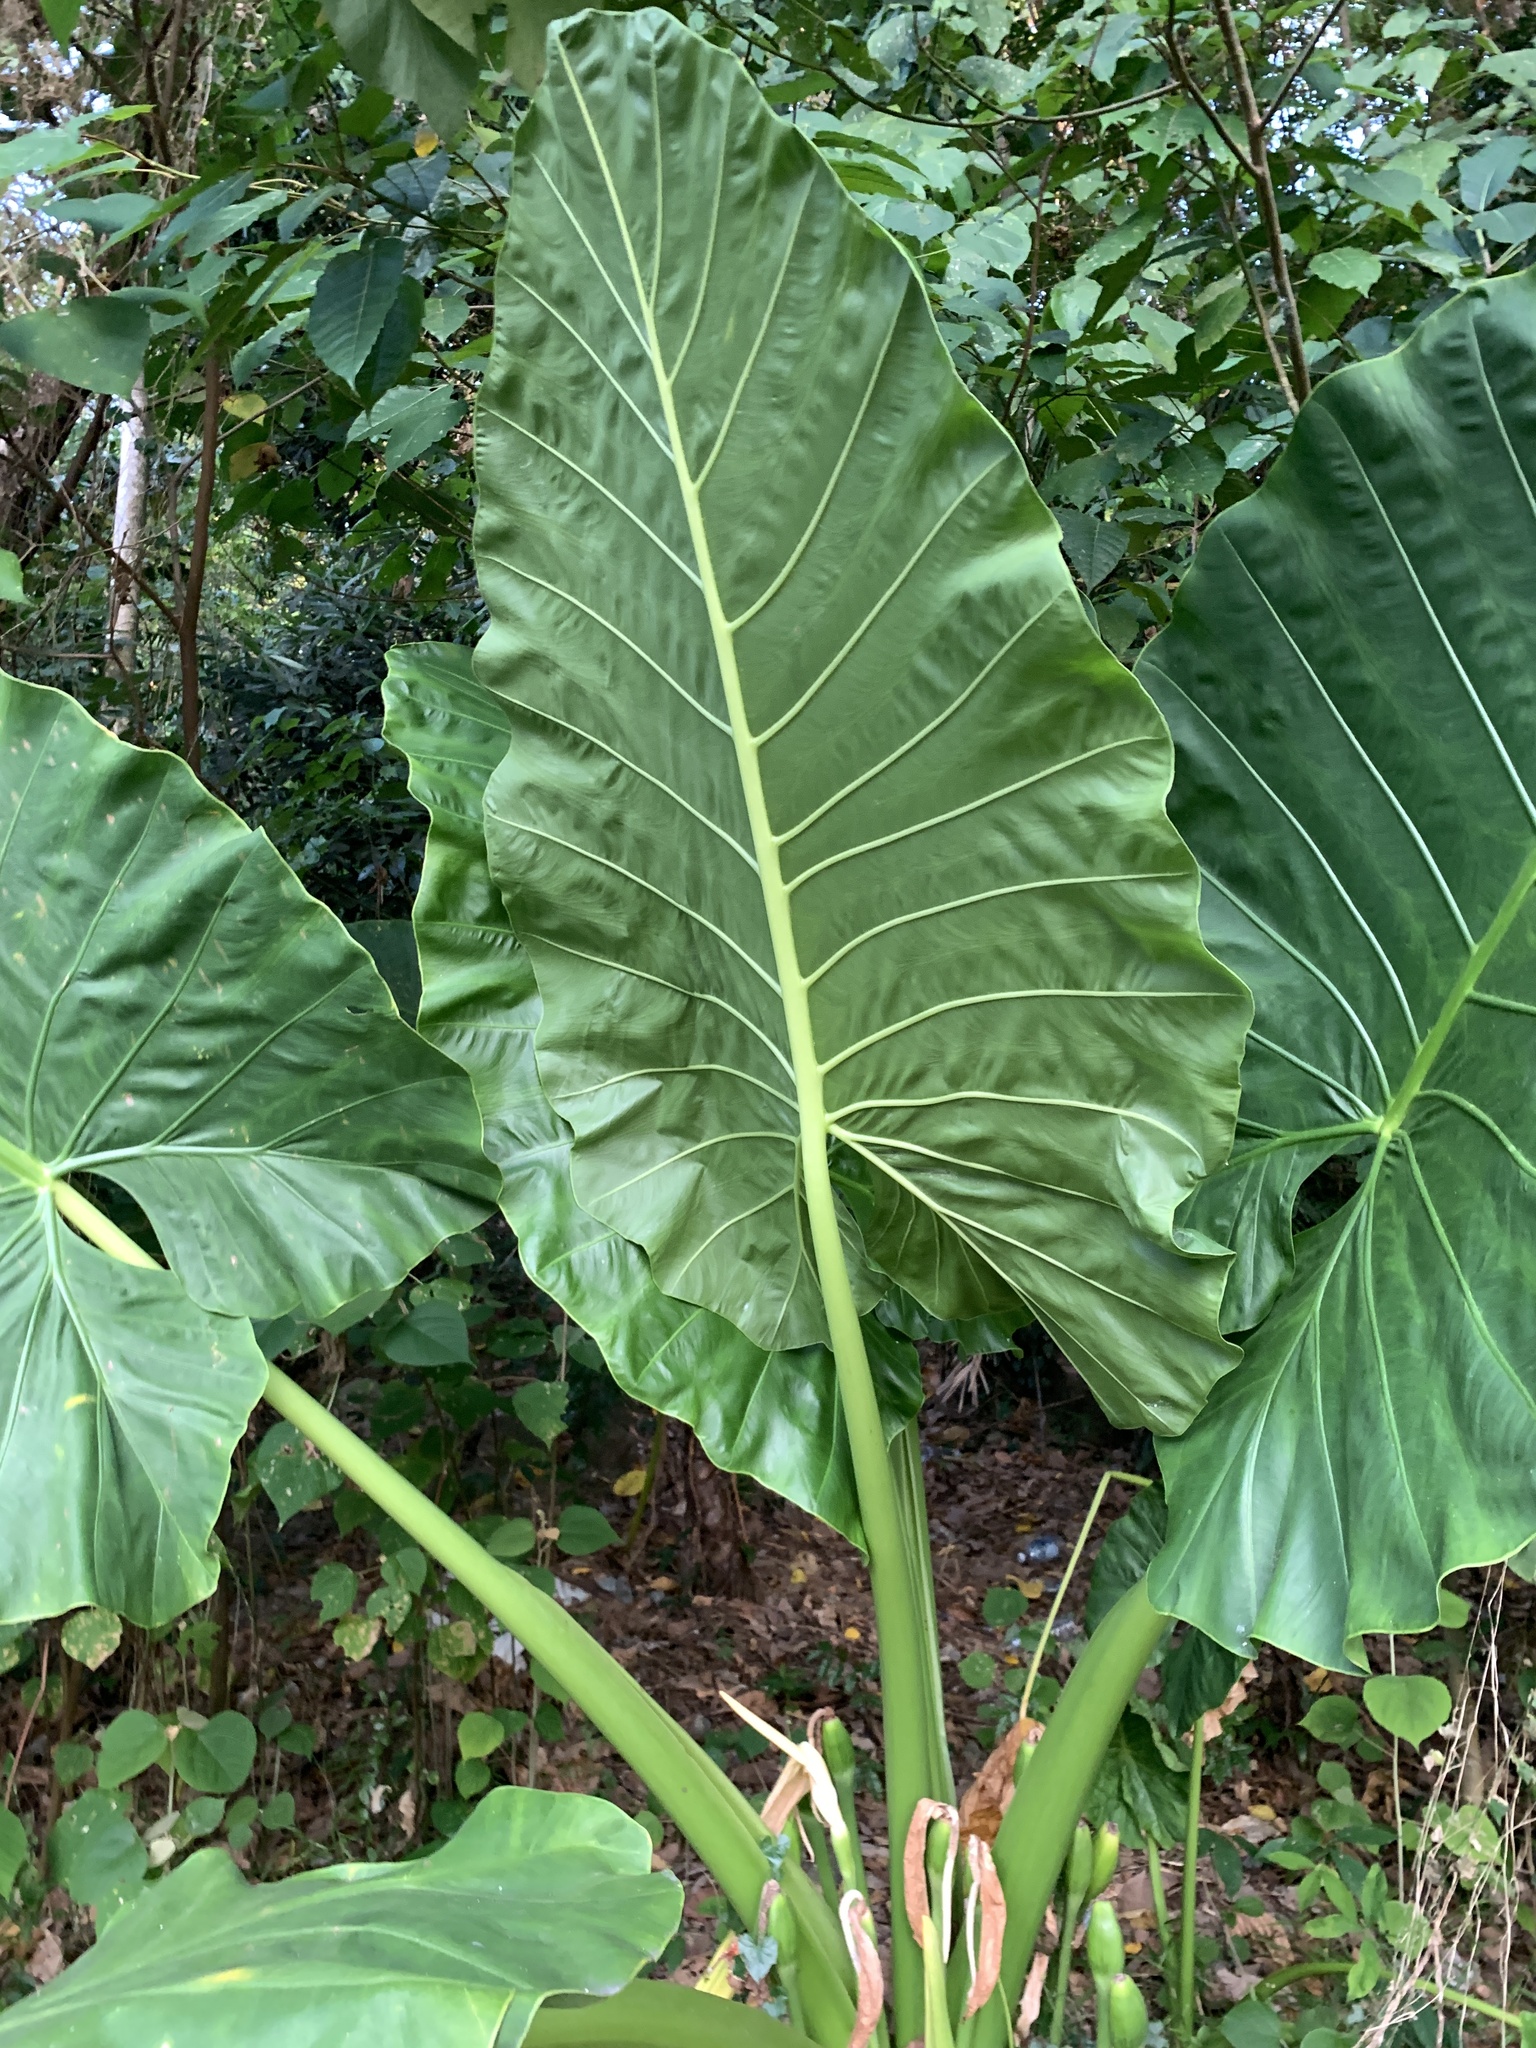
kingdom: Plantae
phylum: Tracheophyta
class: Liliopsida
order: Alismatales
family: Araceae
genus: Alocasia
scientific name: Alocasia macrorrhizos
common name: Giant taro
